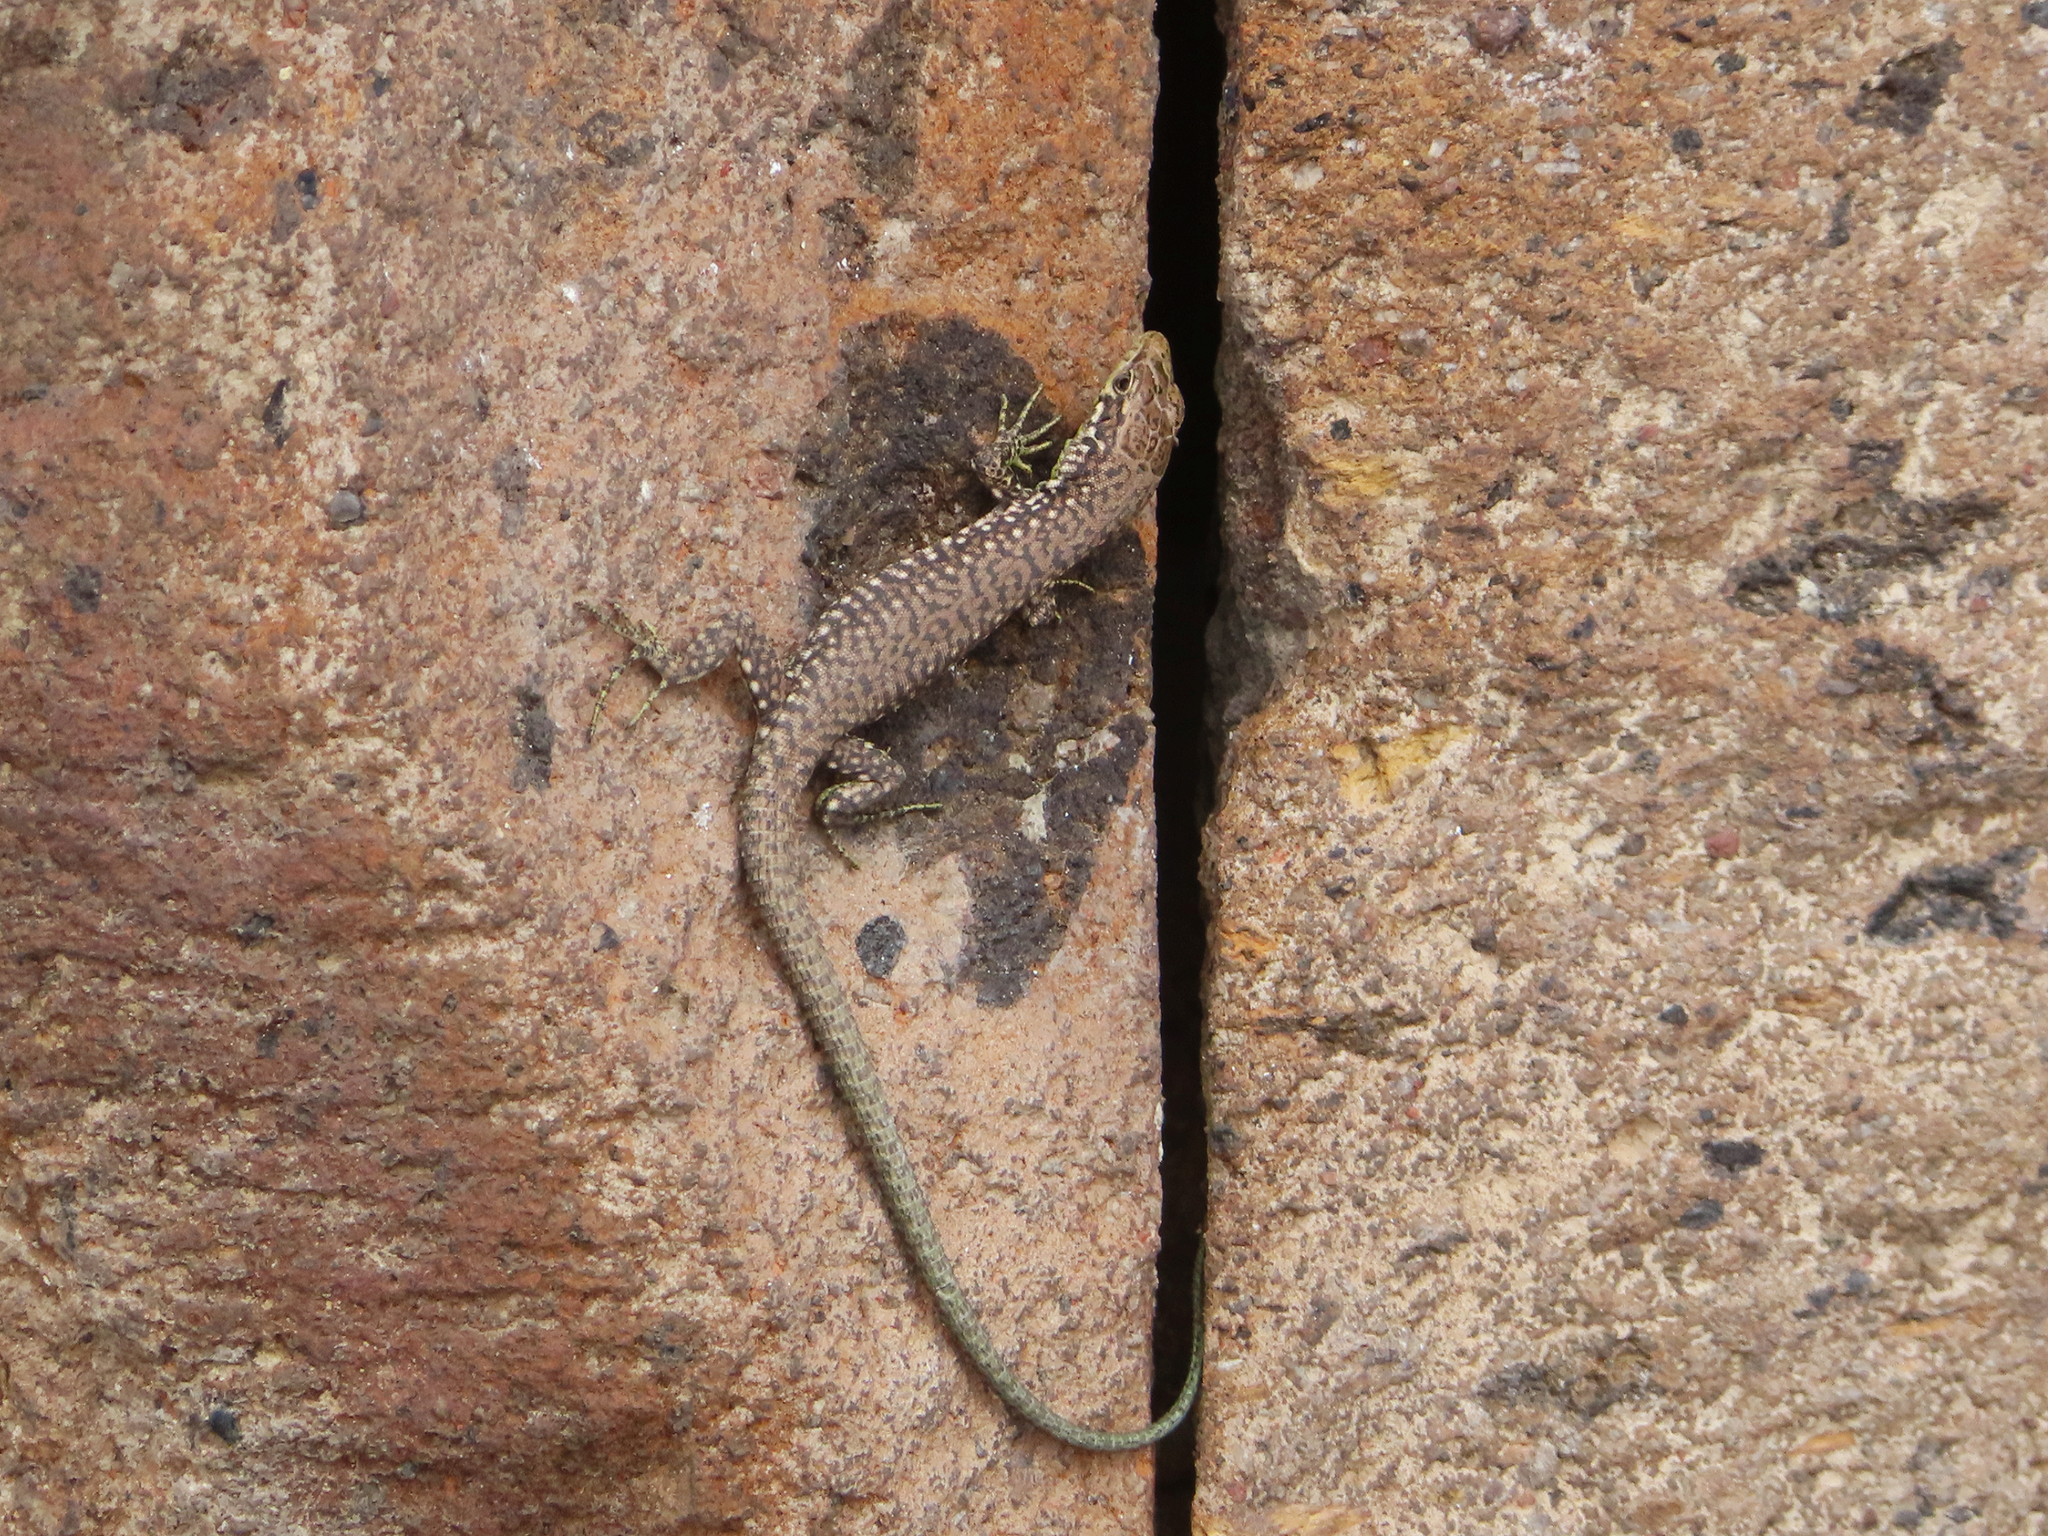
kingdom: Animalia
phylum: Chordata
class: Squamata
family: Lacertidae
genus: Darevskia
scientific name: Darevskia
